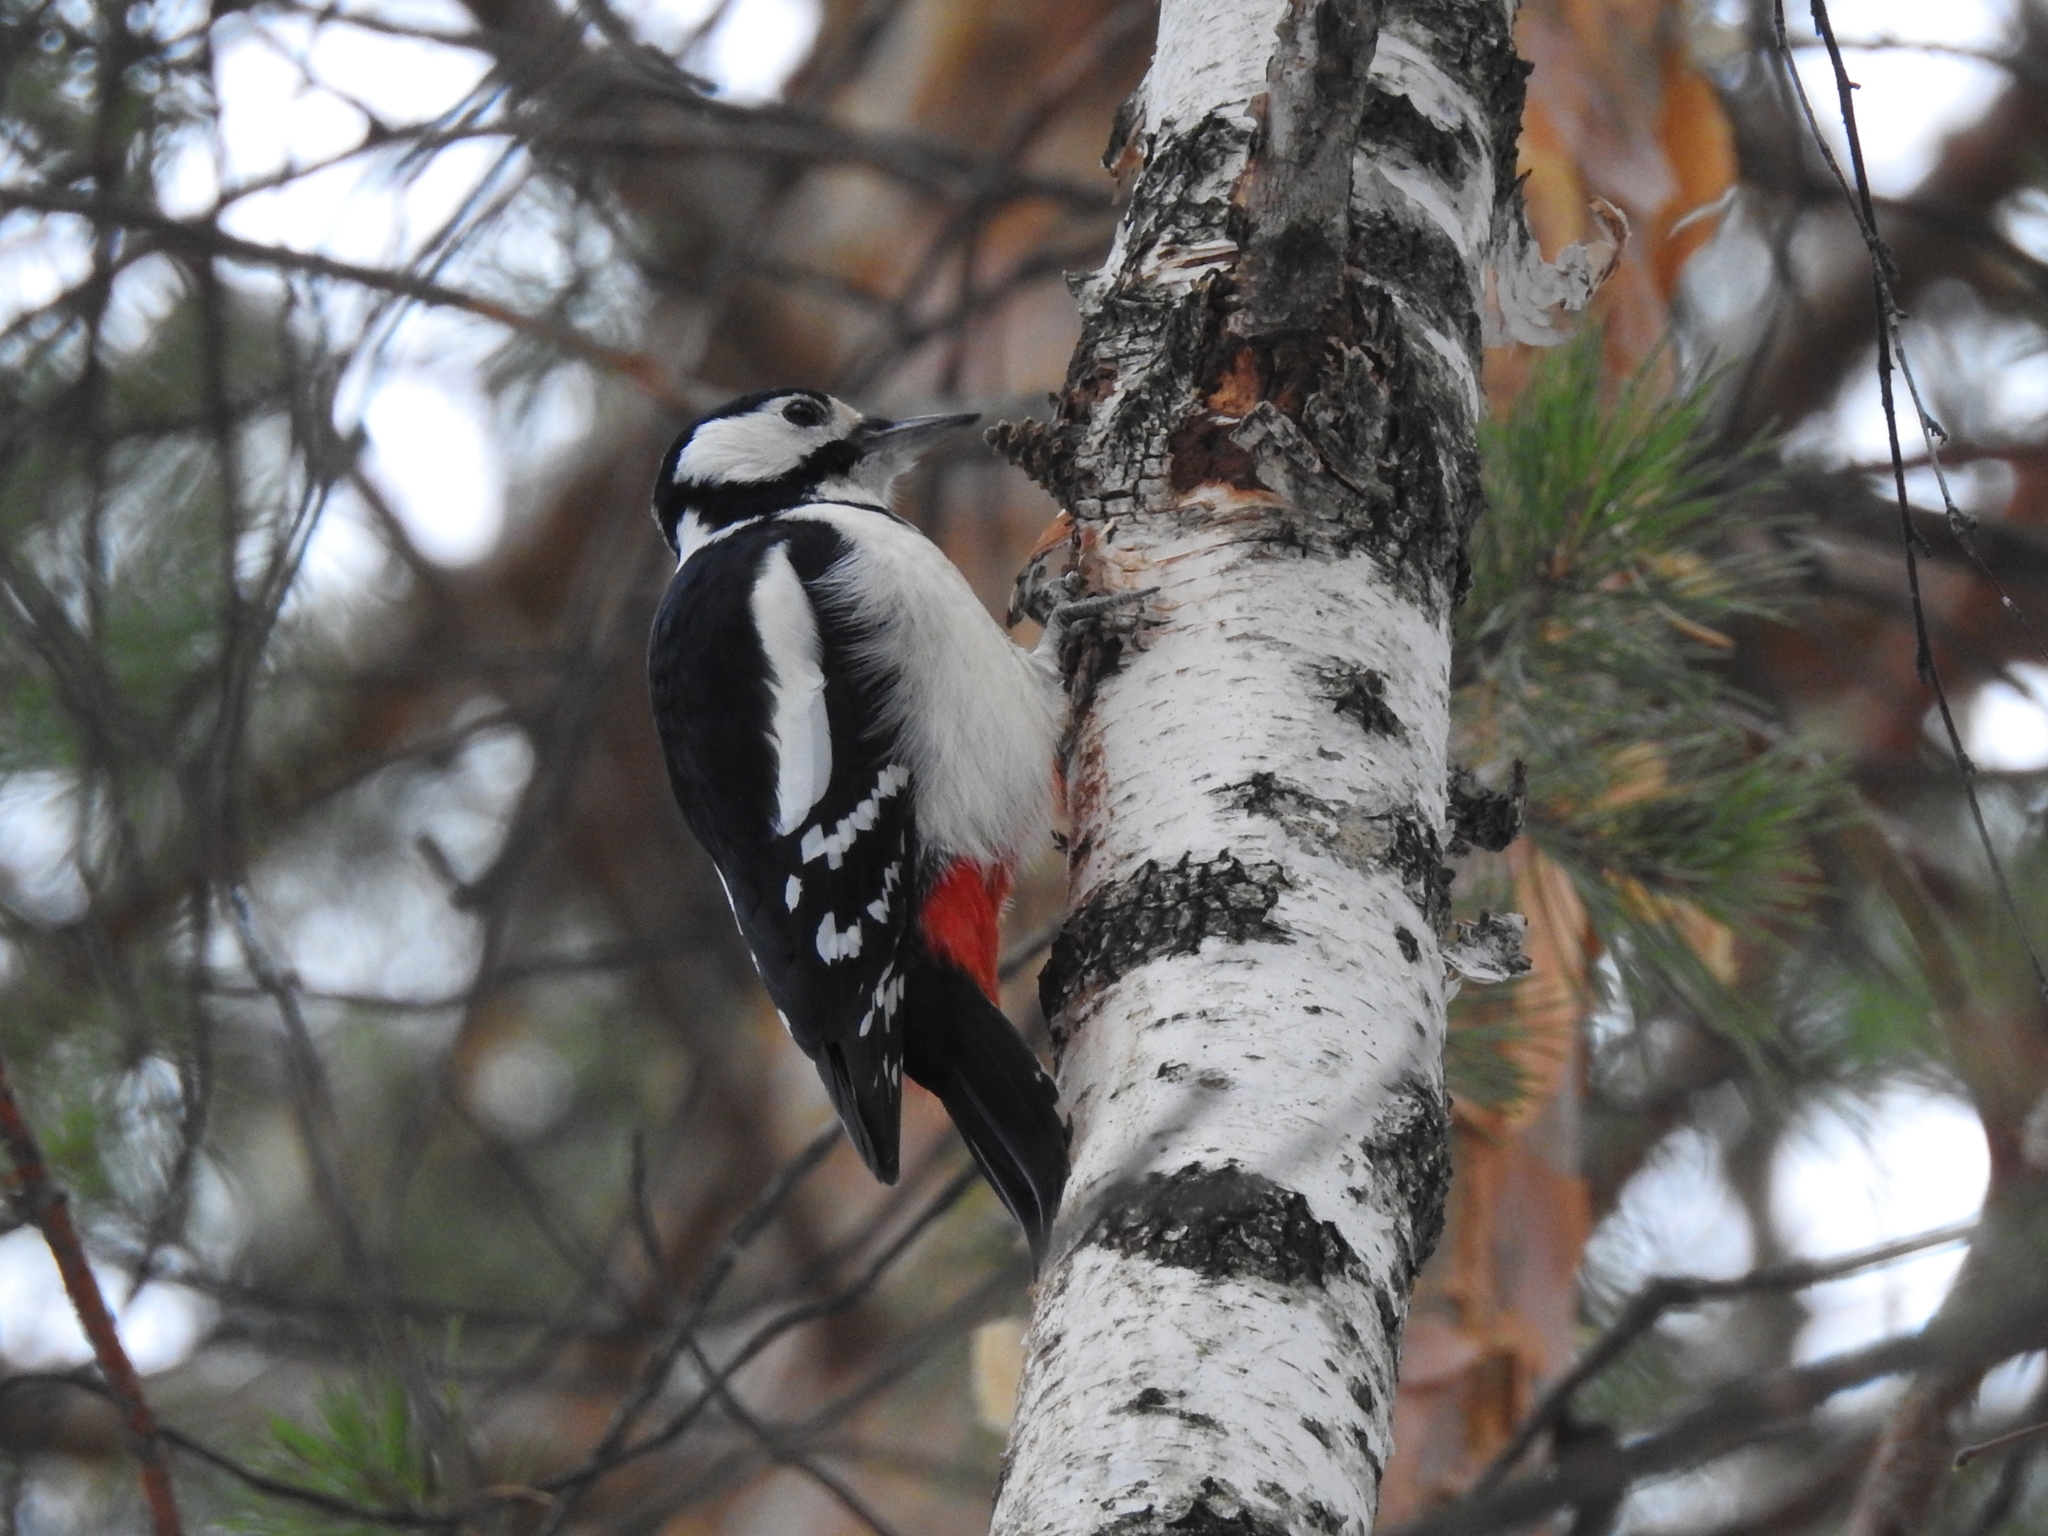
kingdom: Animalia
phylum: Chordata
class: Aves
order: Piciformes
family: Picidae
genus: Dendrocopos
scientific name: Dendrocopos major
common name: Great spotted woodpecker
